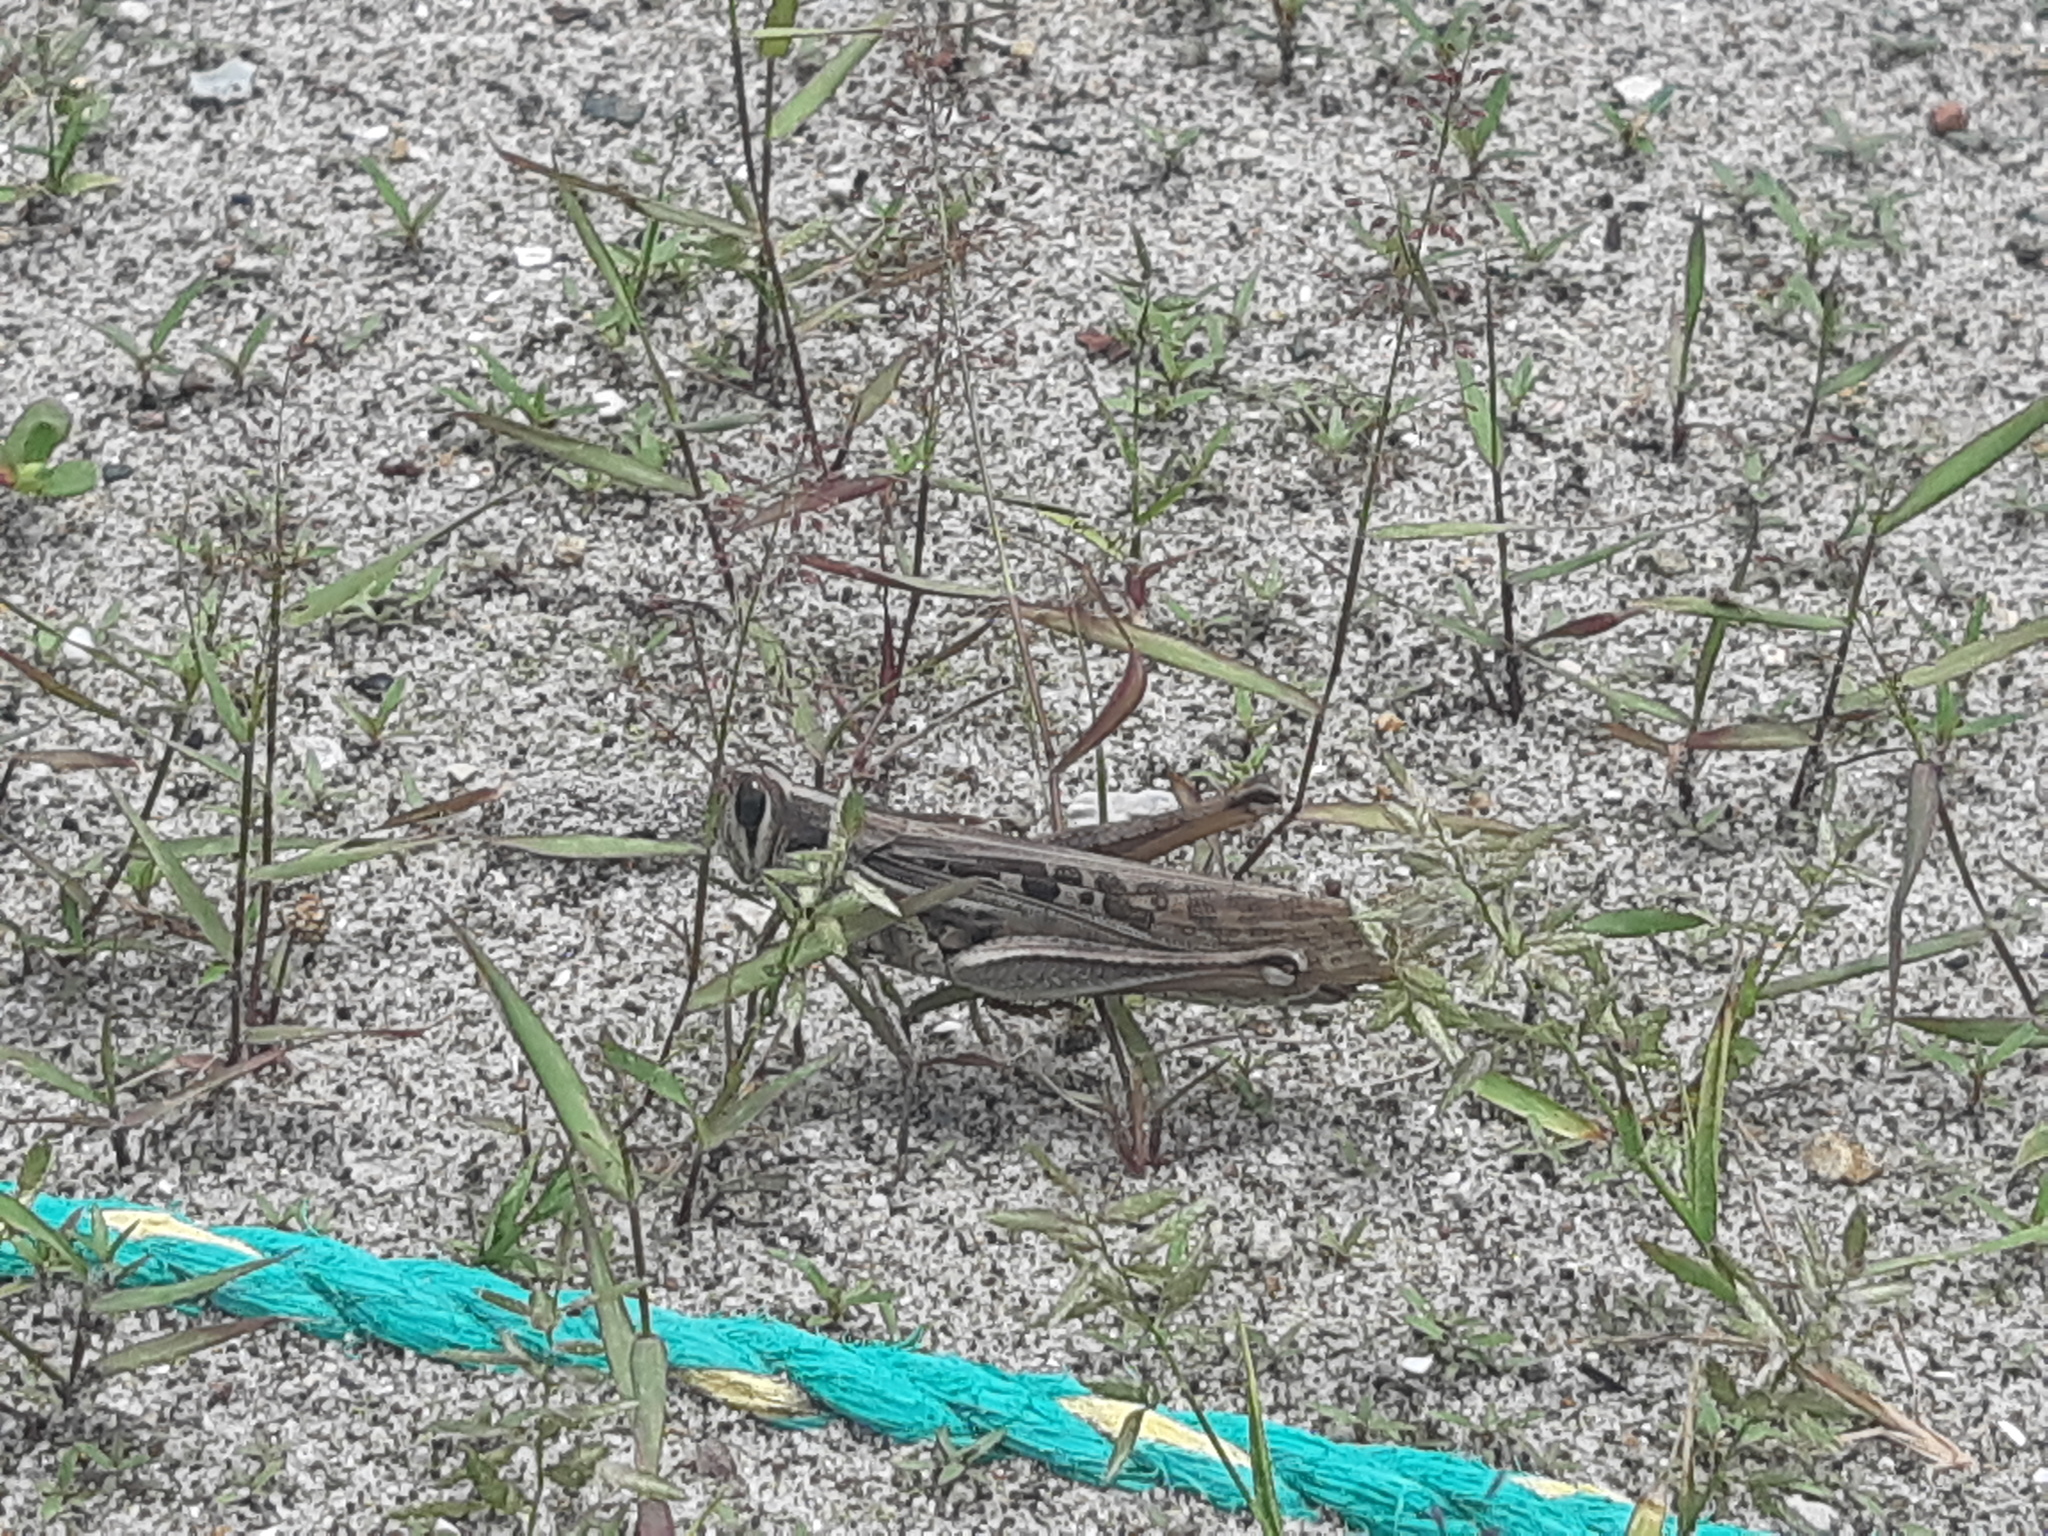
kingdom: Animalia
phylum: Arthropoda
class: Insecta
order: Orthoptera
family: Acrididae
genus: Schistocerca
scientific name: Schistocerca subspurcata
